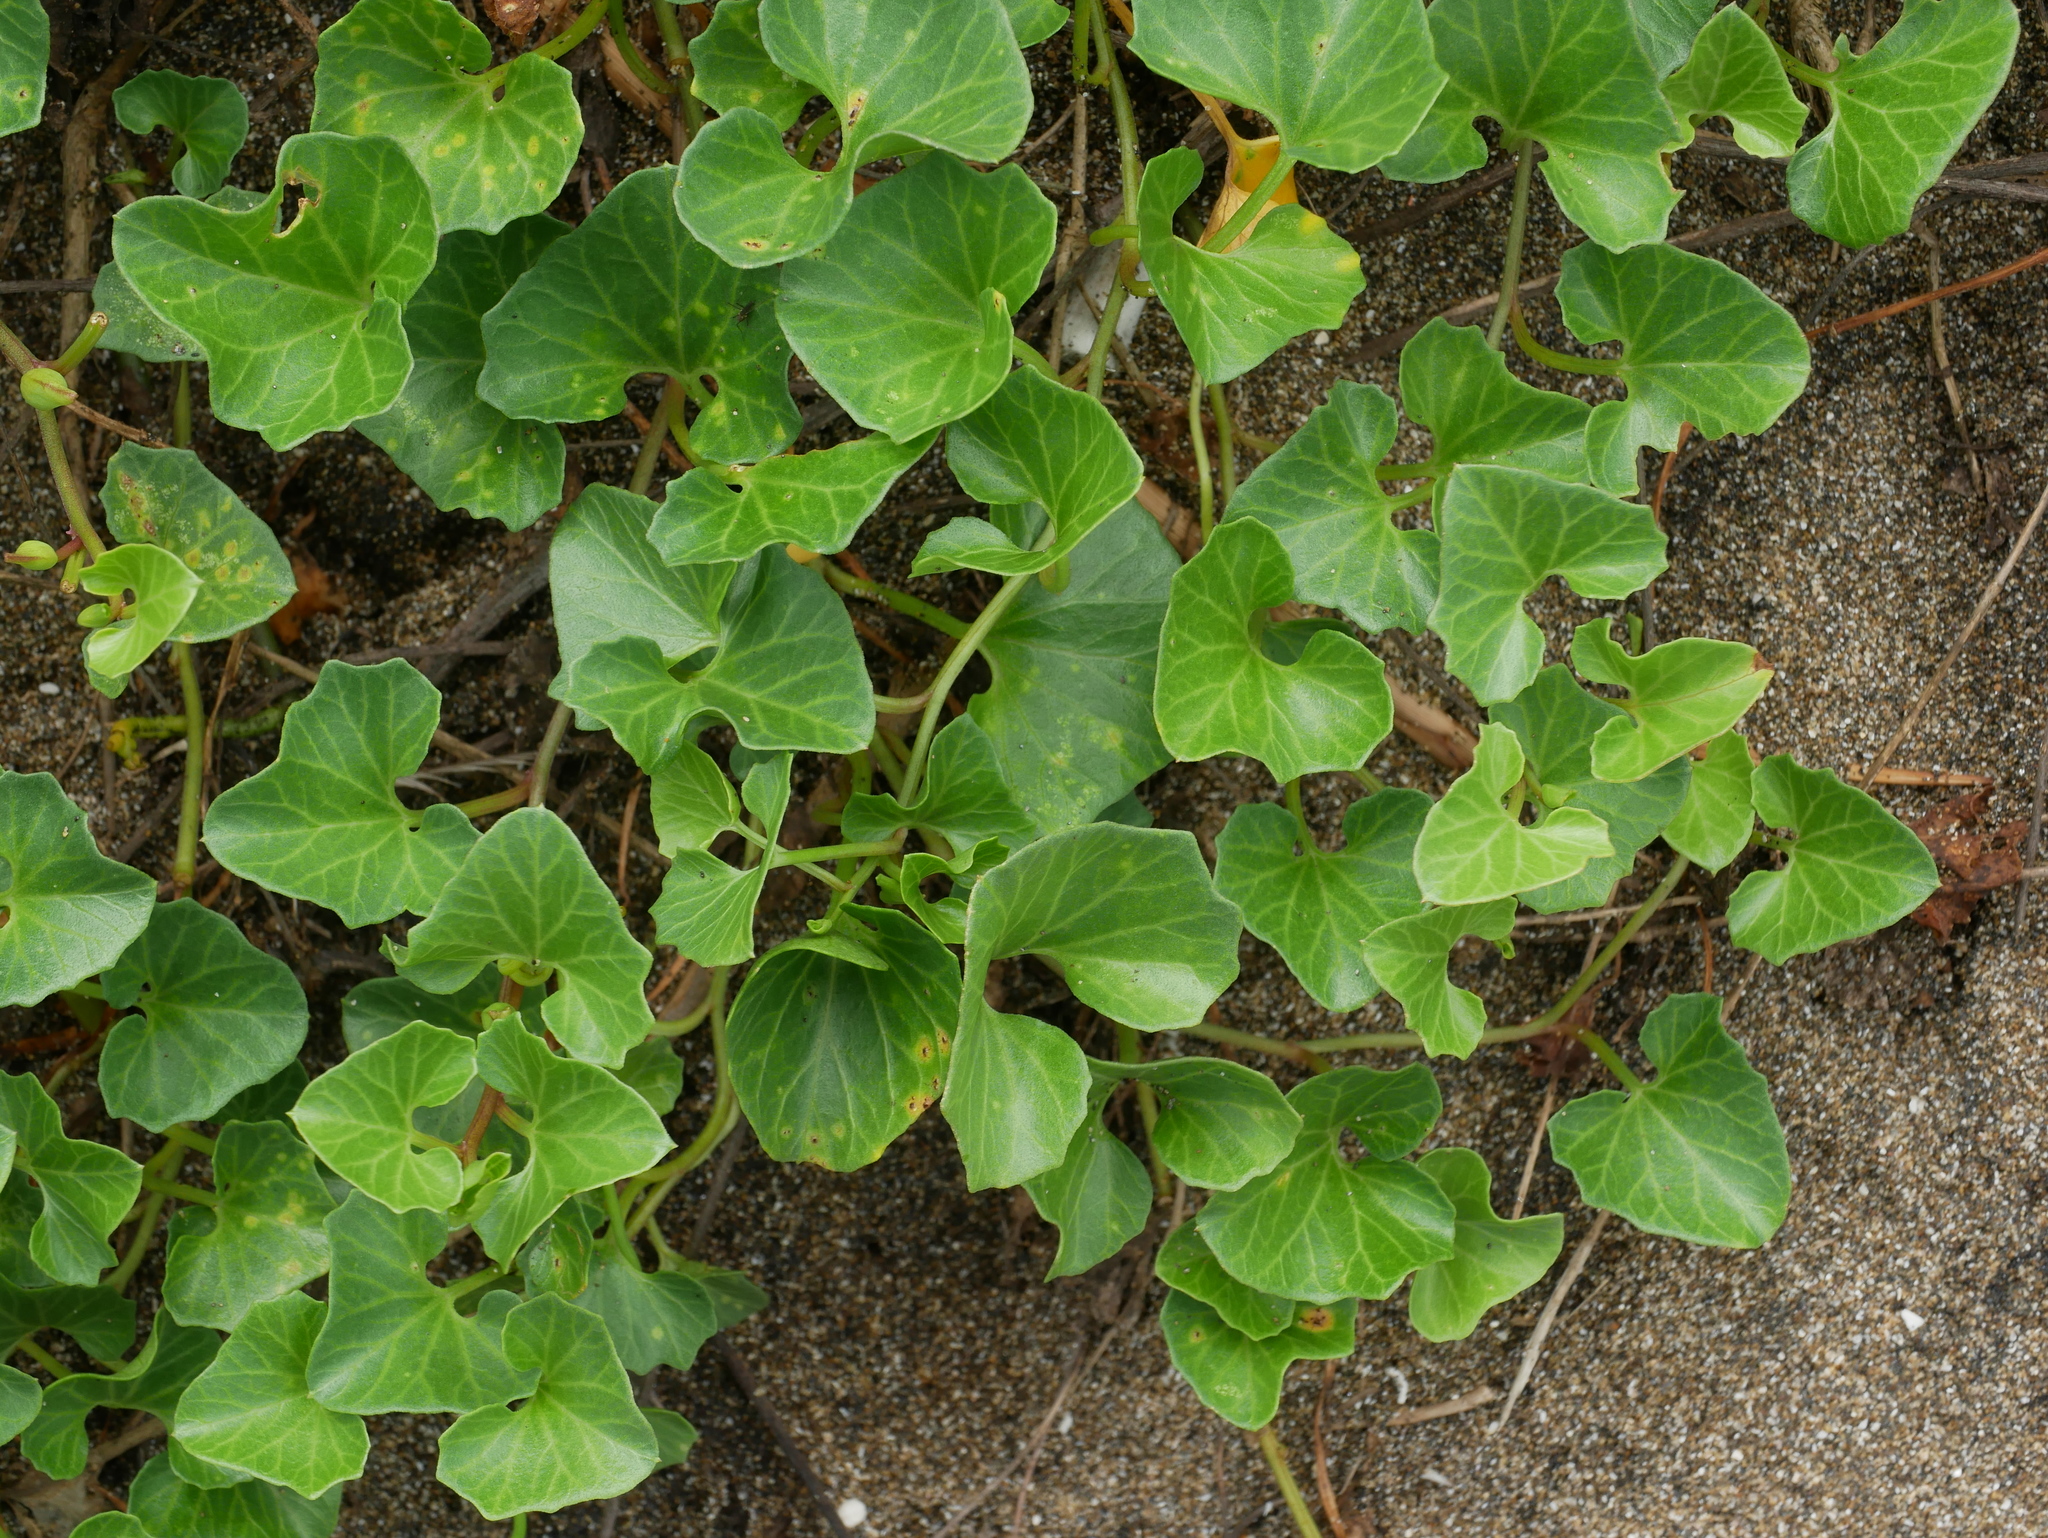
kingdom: Plantae
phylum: Tracheophyta
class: Magnoliopsida
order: Solanales
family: Convolvulaceae
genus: Calystegia
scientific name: Calystegia soldanella
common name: Sea bindweed
